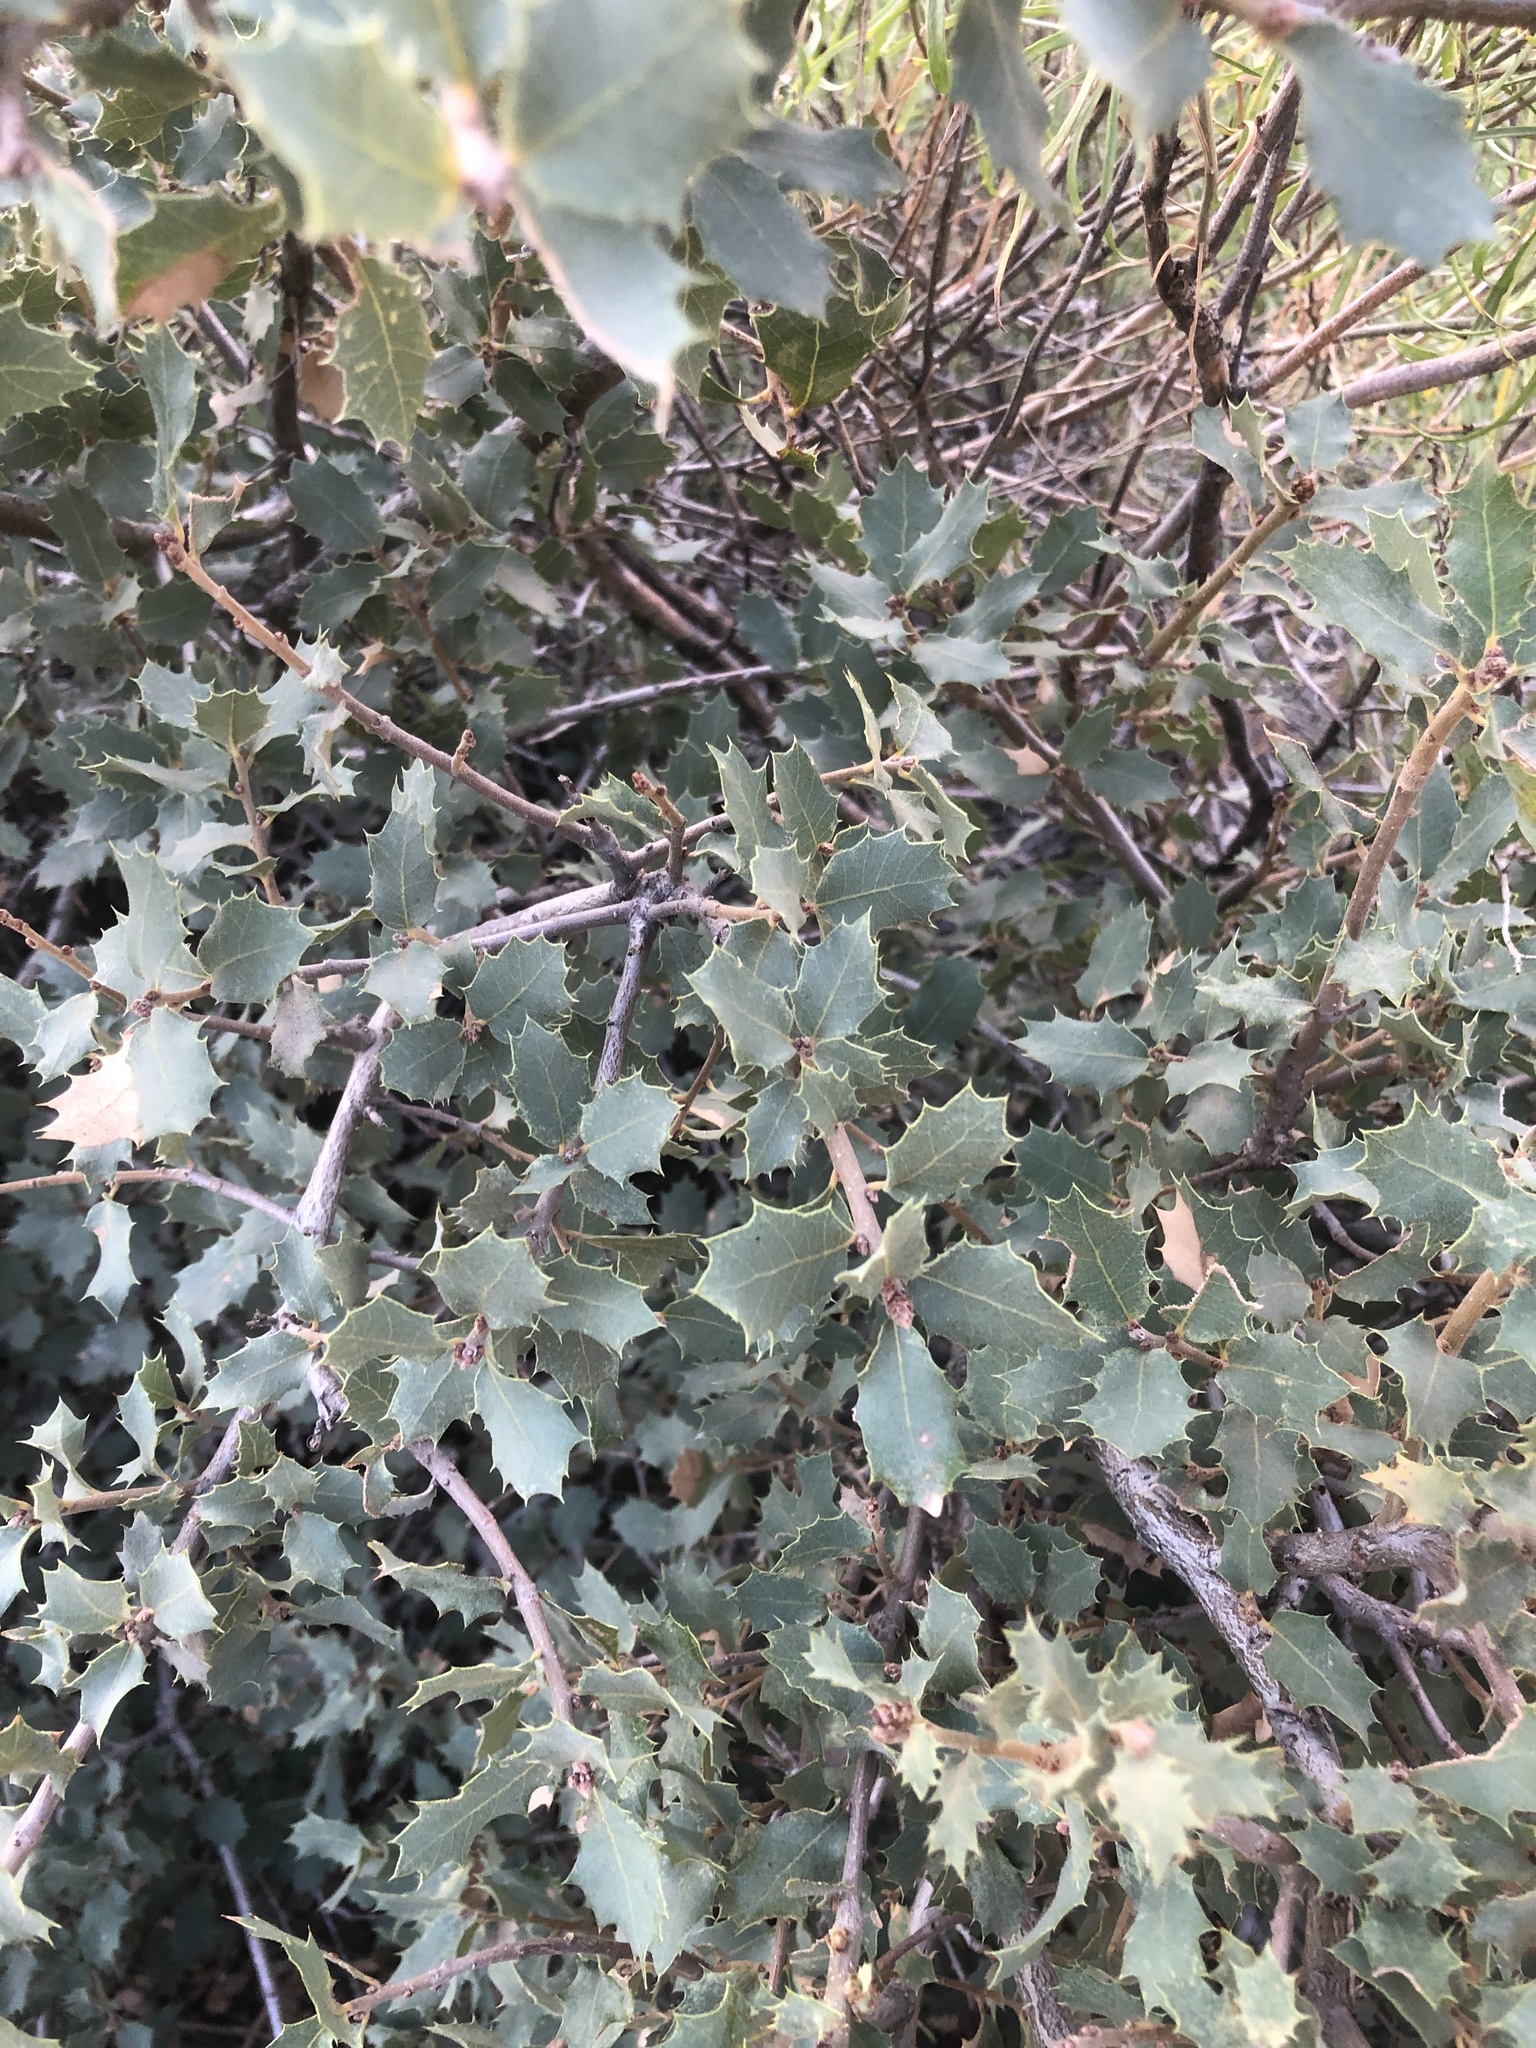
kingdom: Plantae
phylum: Tracheophyta
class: Magnoliopsida
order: Fagales
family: Fagaceae
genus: Quercus
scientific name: Quercus turbinella
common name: Sonoran scrub oak
